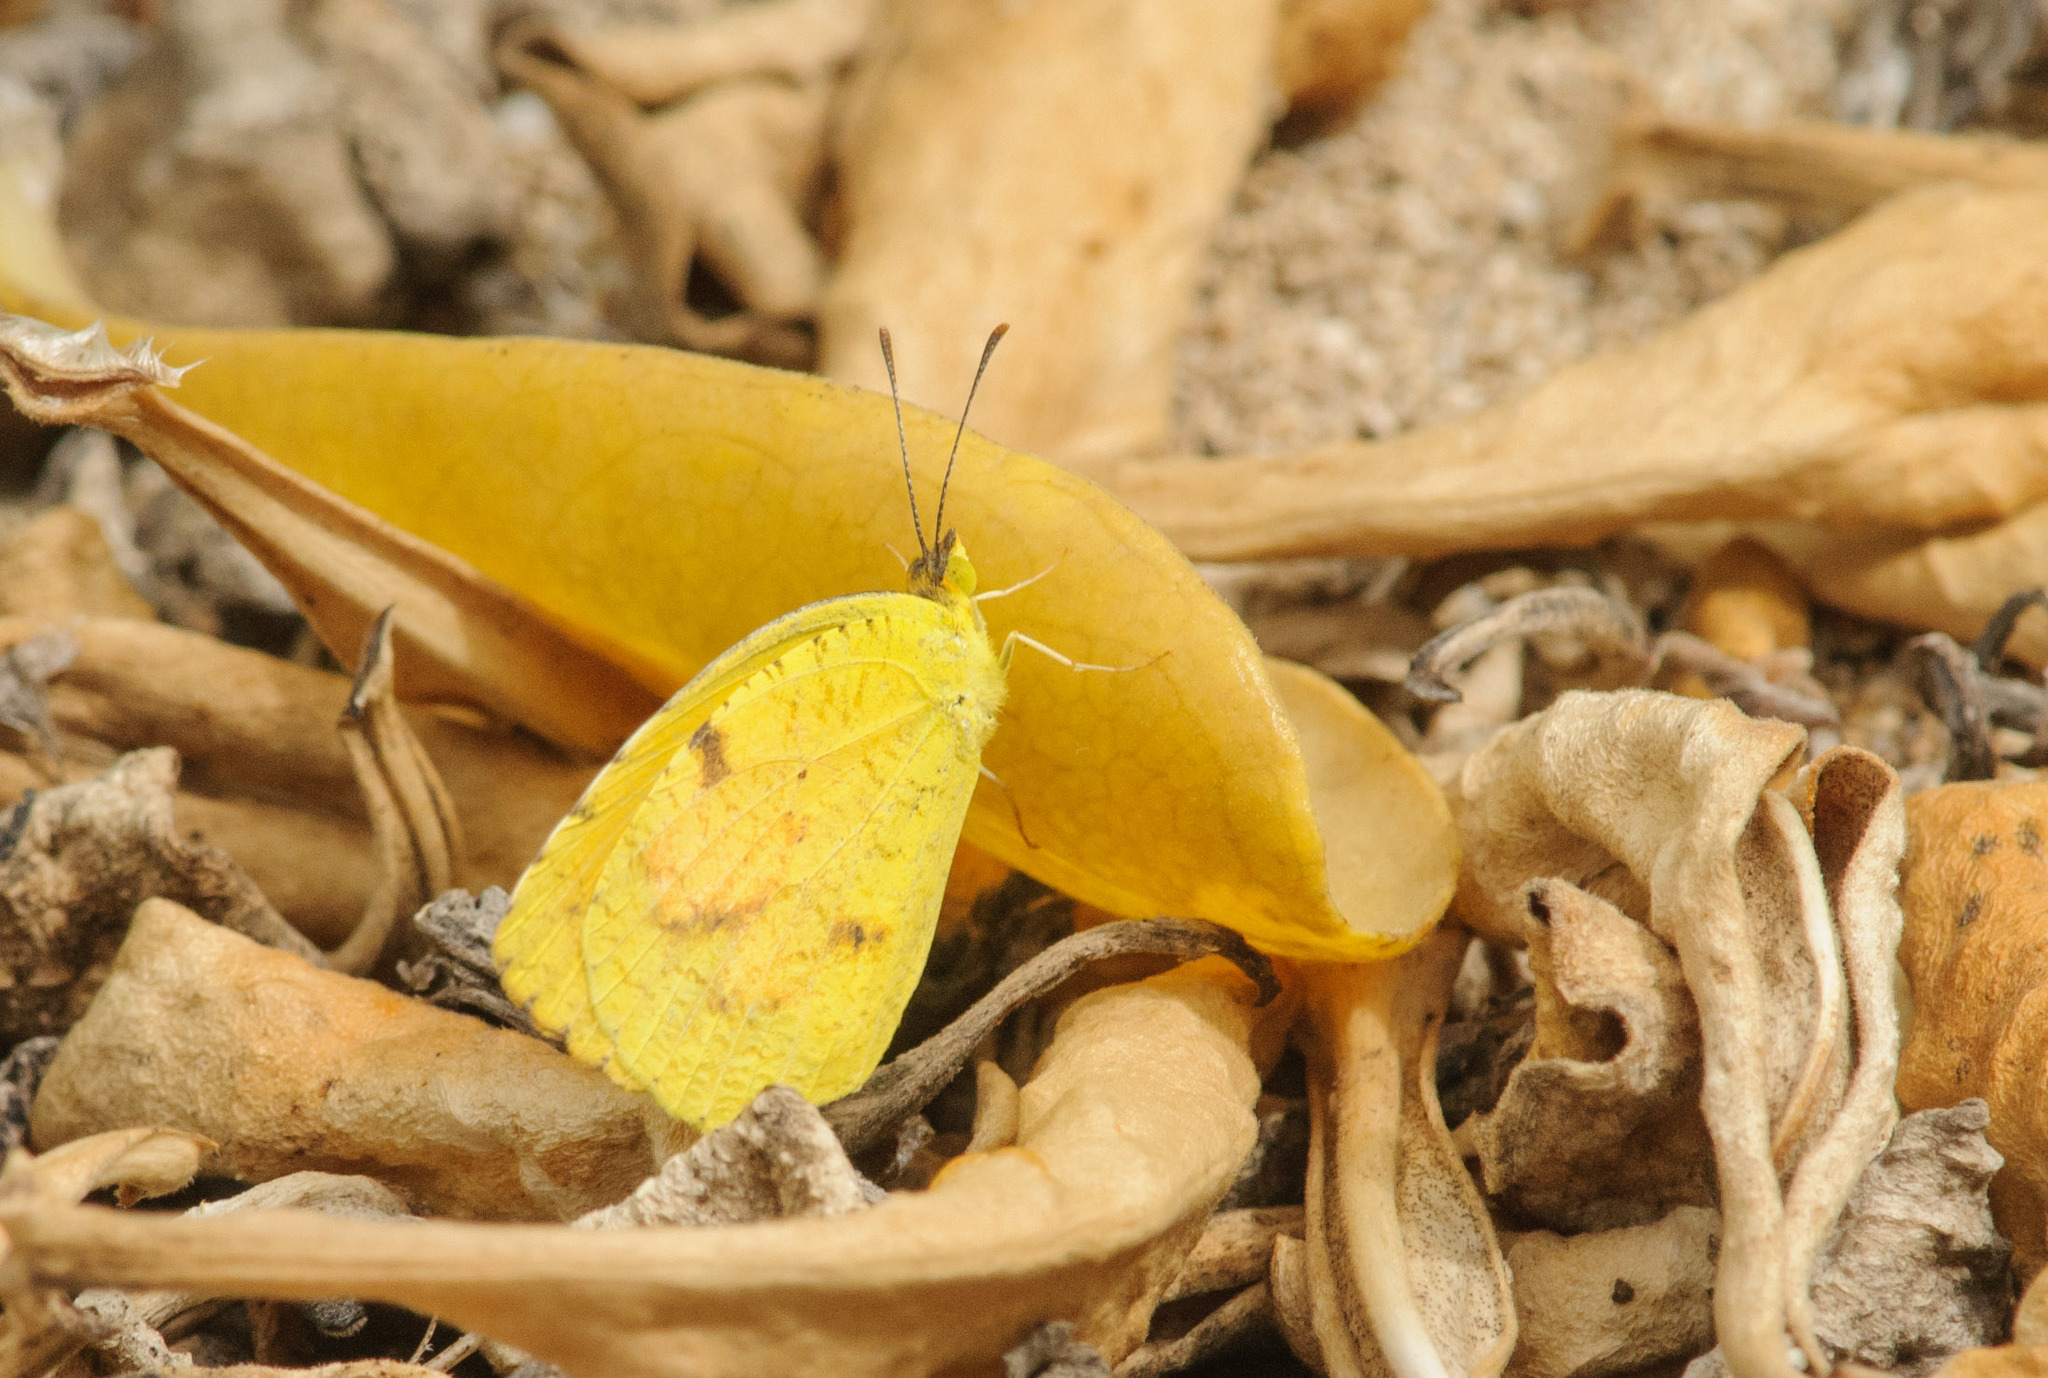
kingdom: Animalia
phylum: Arthropoda
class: Insecta
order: Lepidoptera
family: Pieridae
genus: Abaeis
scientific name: Abaeis nicippe
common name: Sleepy orange
